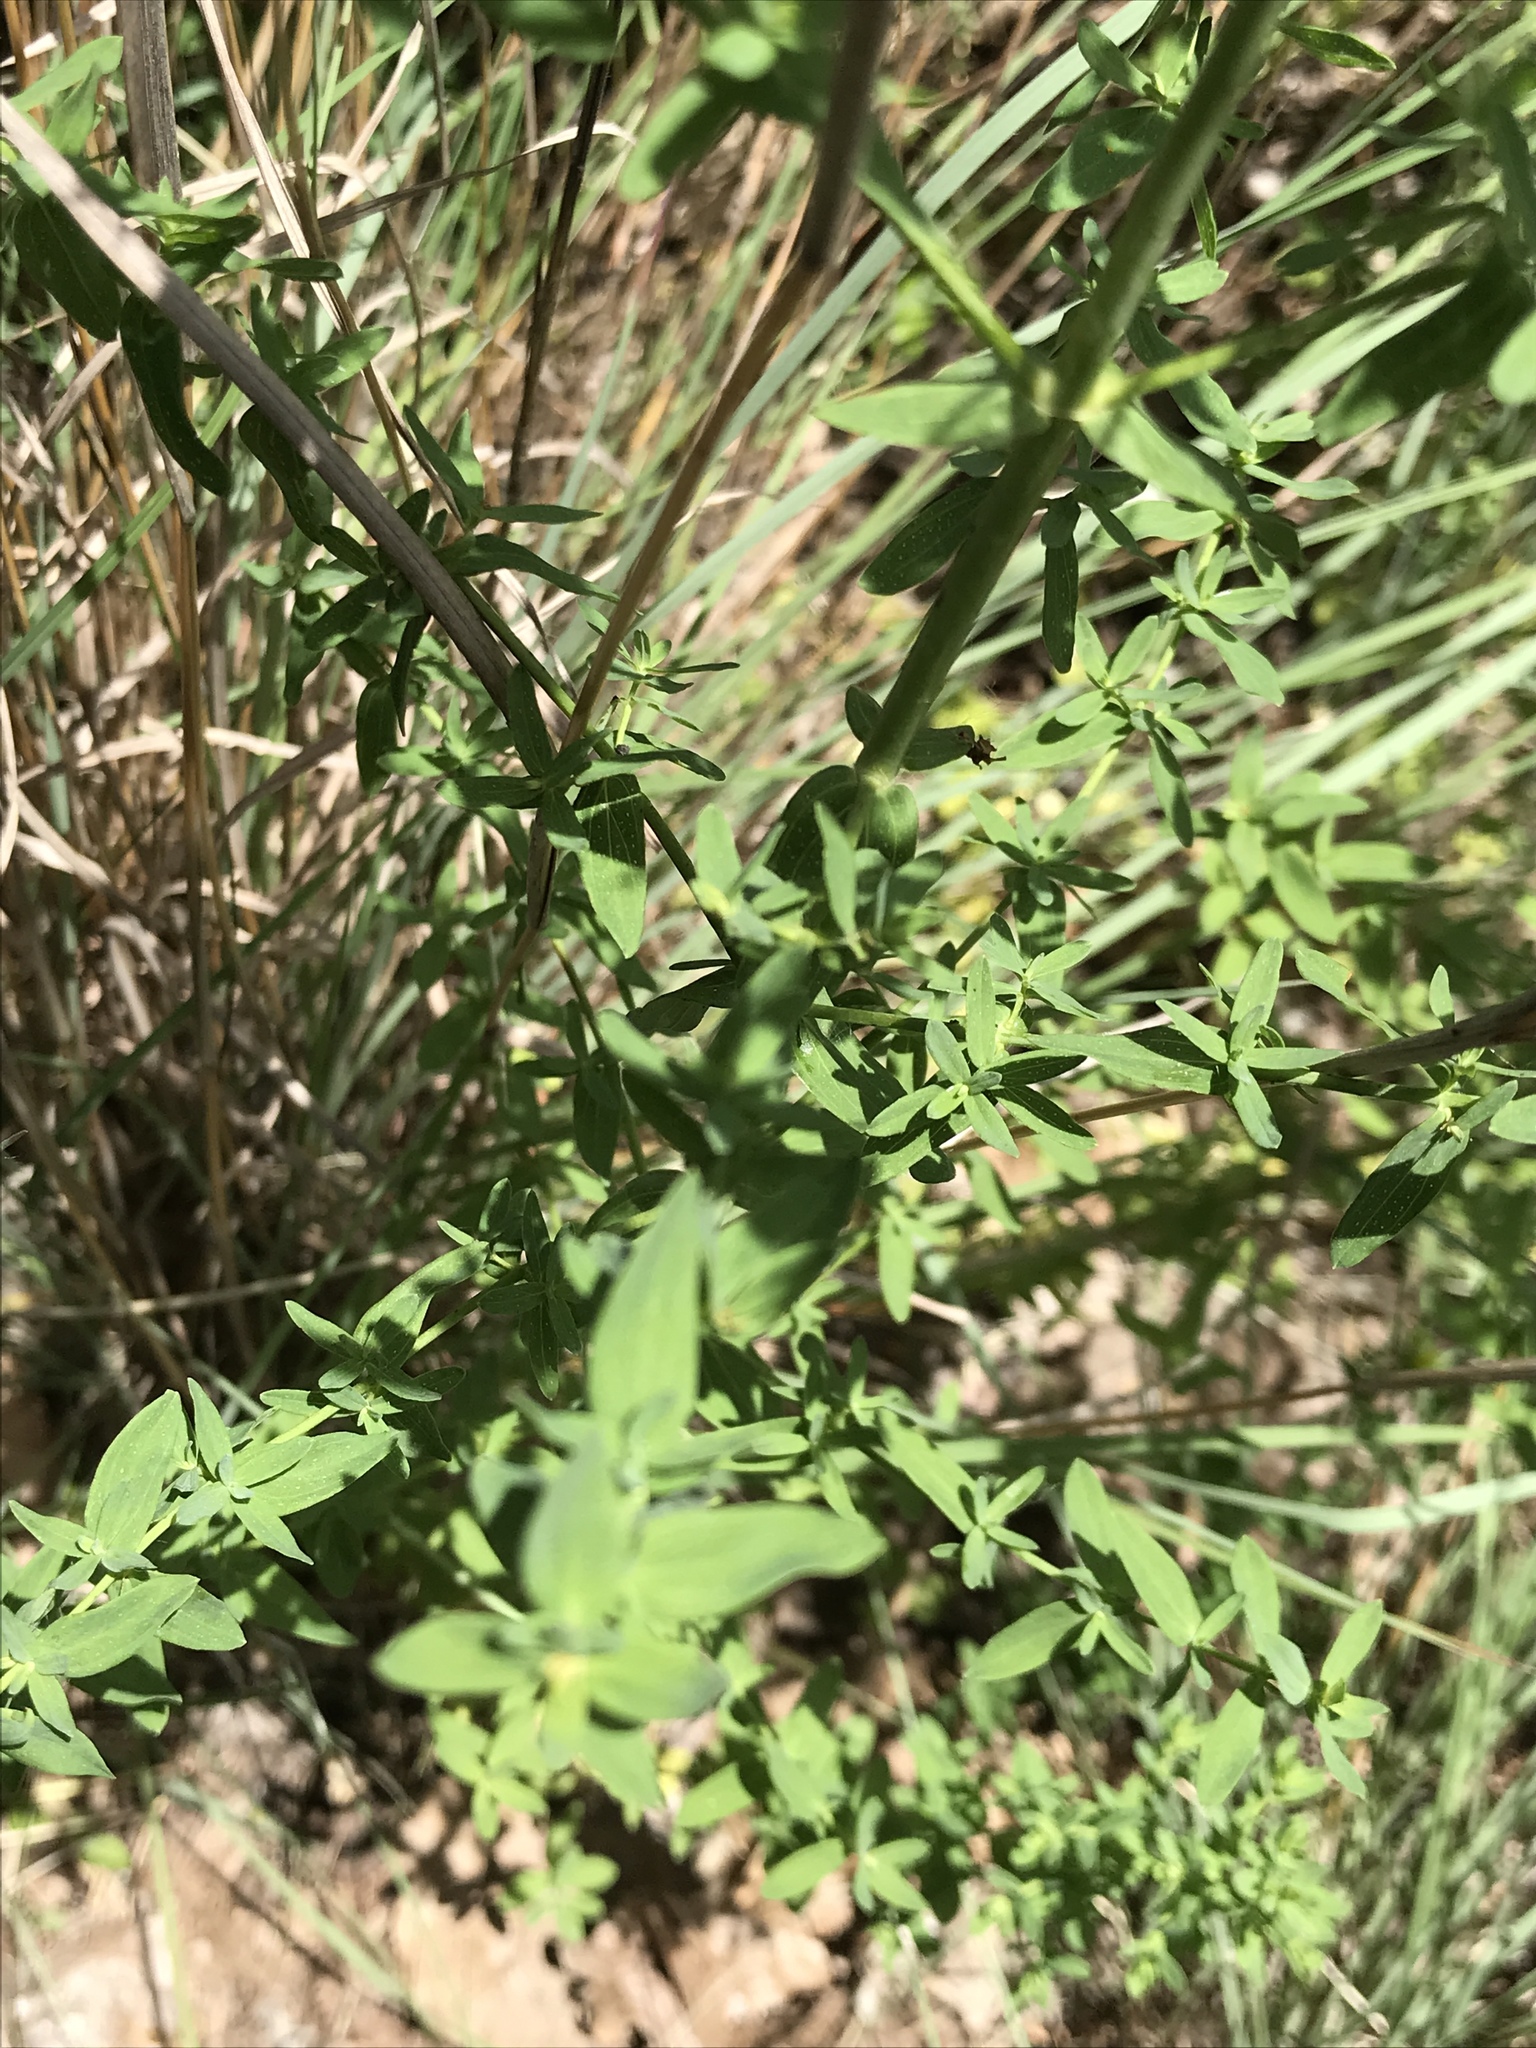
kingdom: Plantae
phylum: Tracheophyta
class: Magnoliopsida
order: Malpighiales
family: Hypericaceae
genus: Hypericum
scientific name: Hypericum perforatum
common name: Common st. johnswort
